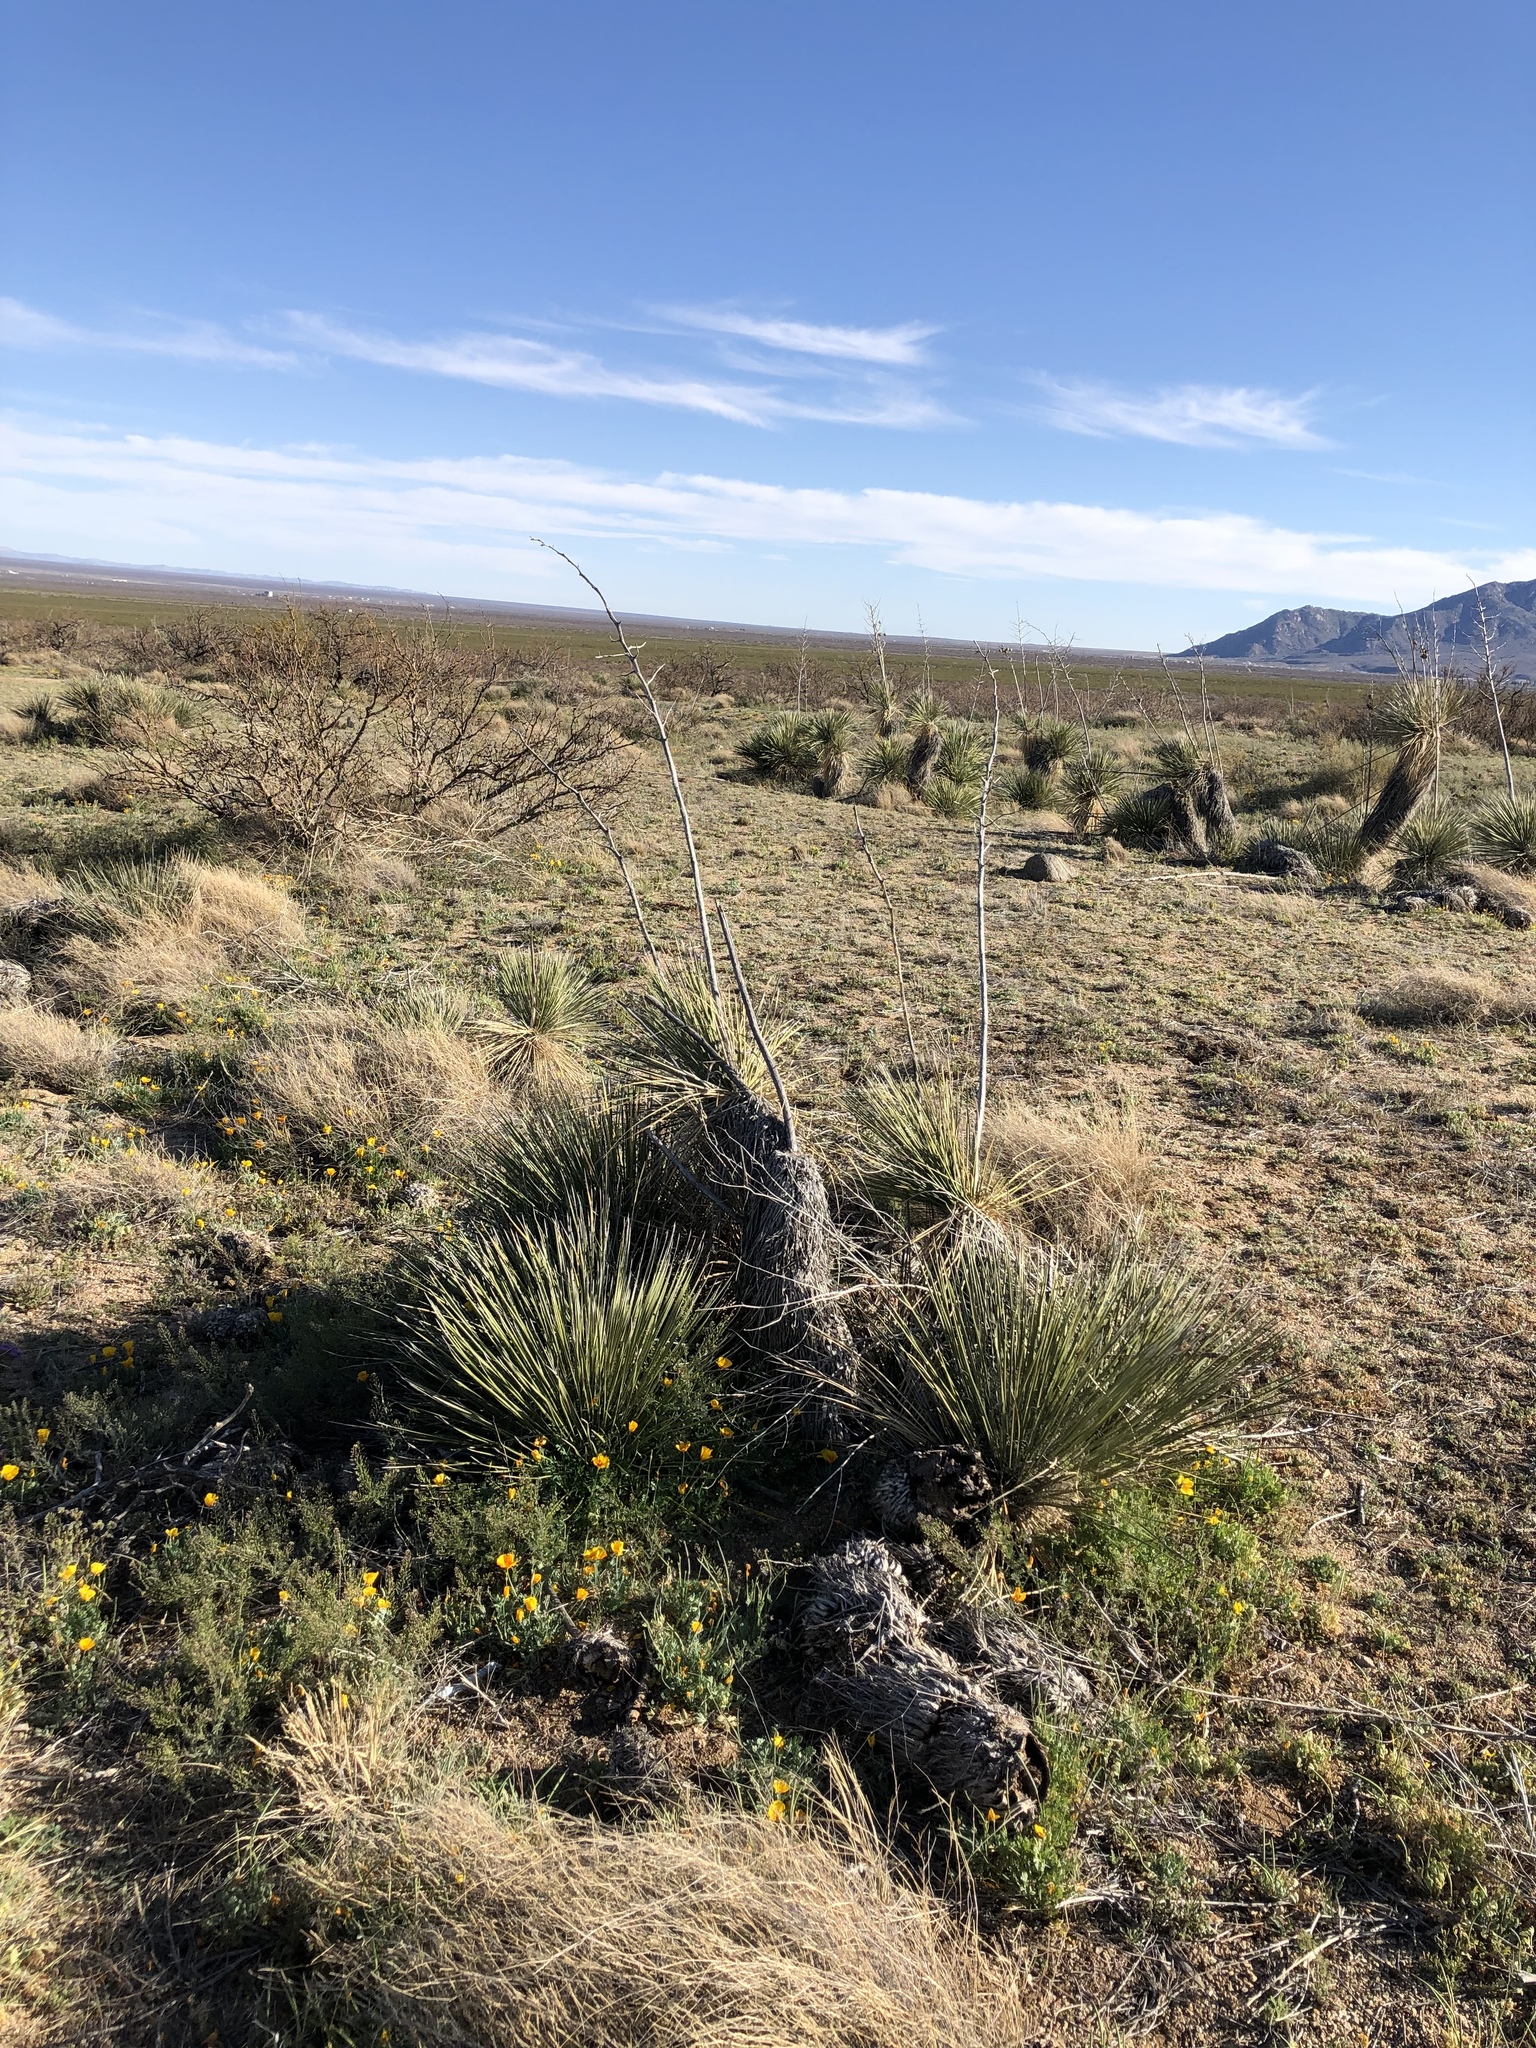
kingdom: Plantae
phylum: Tracheophyta
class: Liliopsida
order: Asparagales
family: Asparagaceae
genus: Yucca
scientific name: Yucca elata
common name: Palmella
